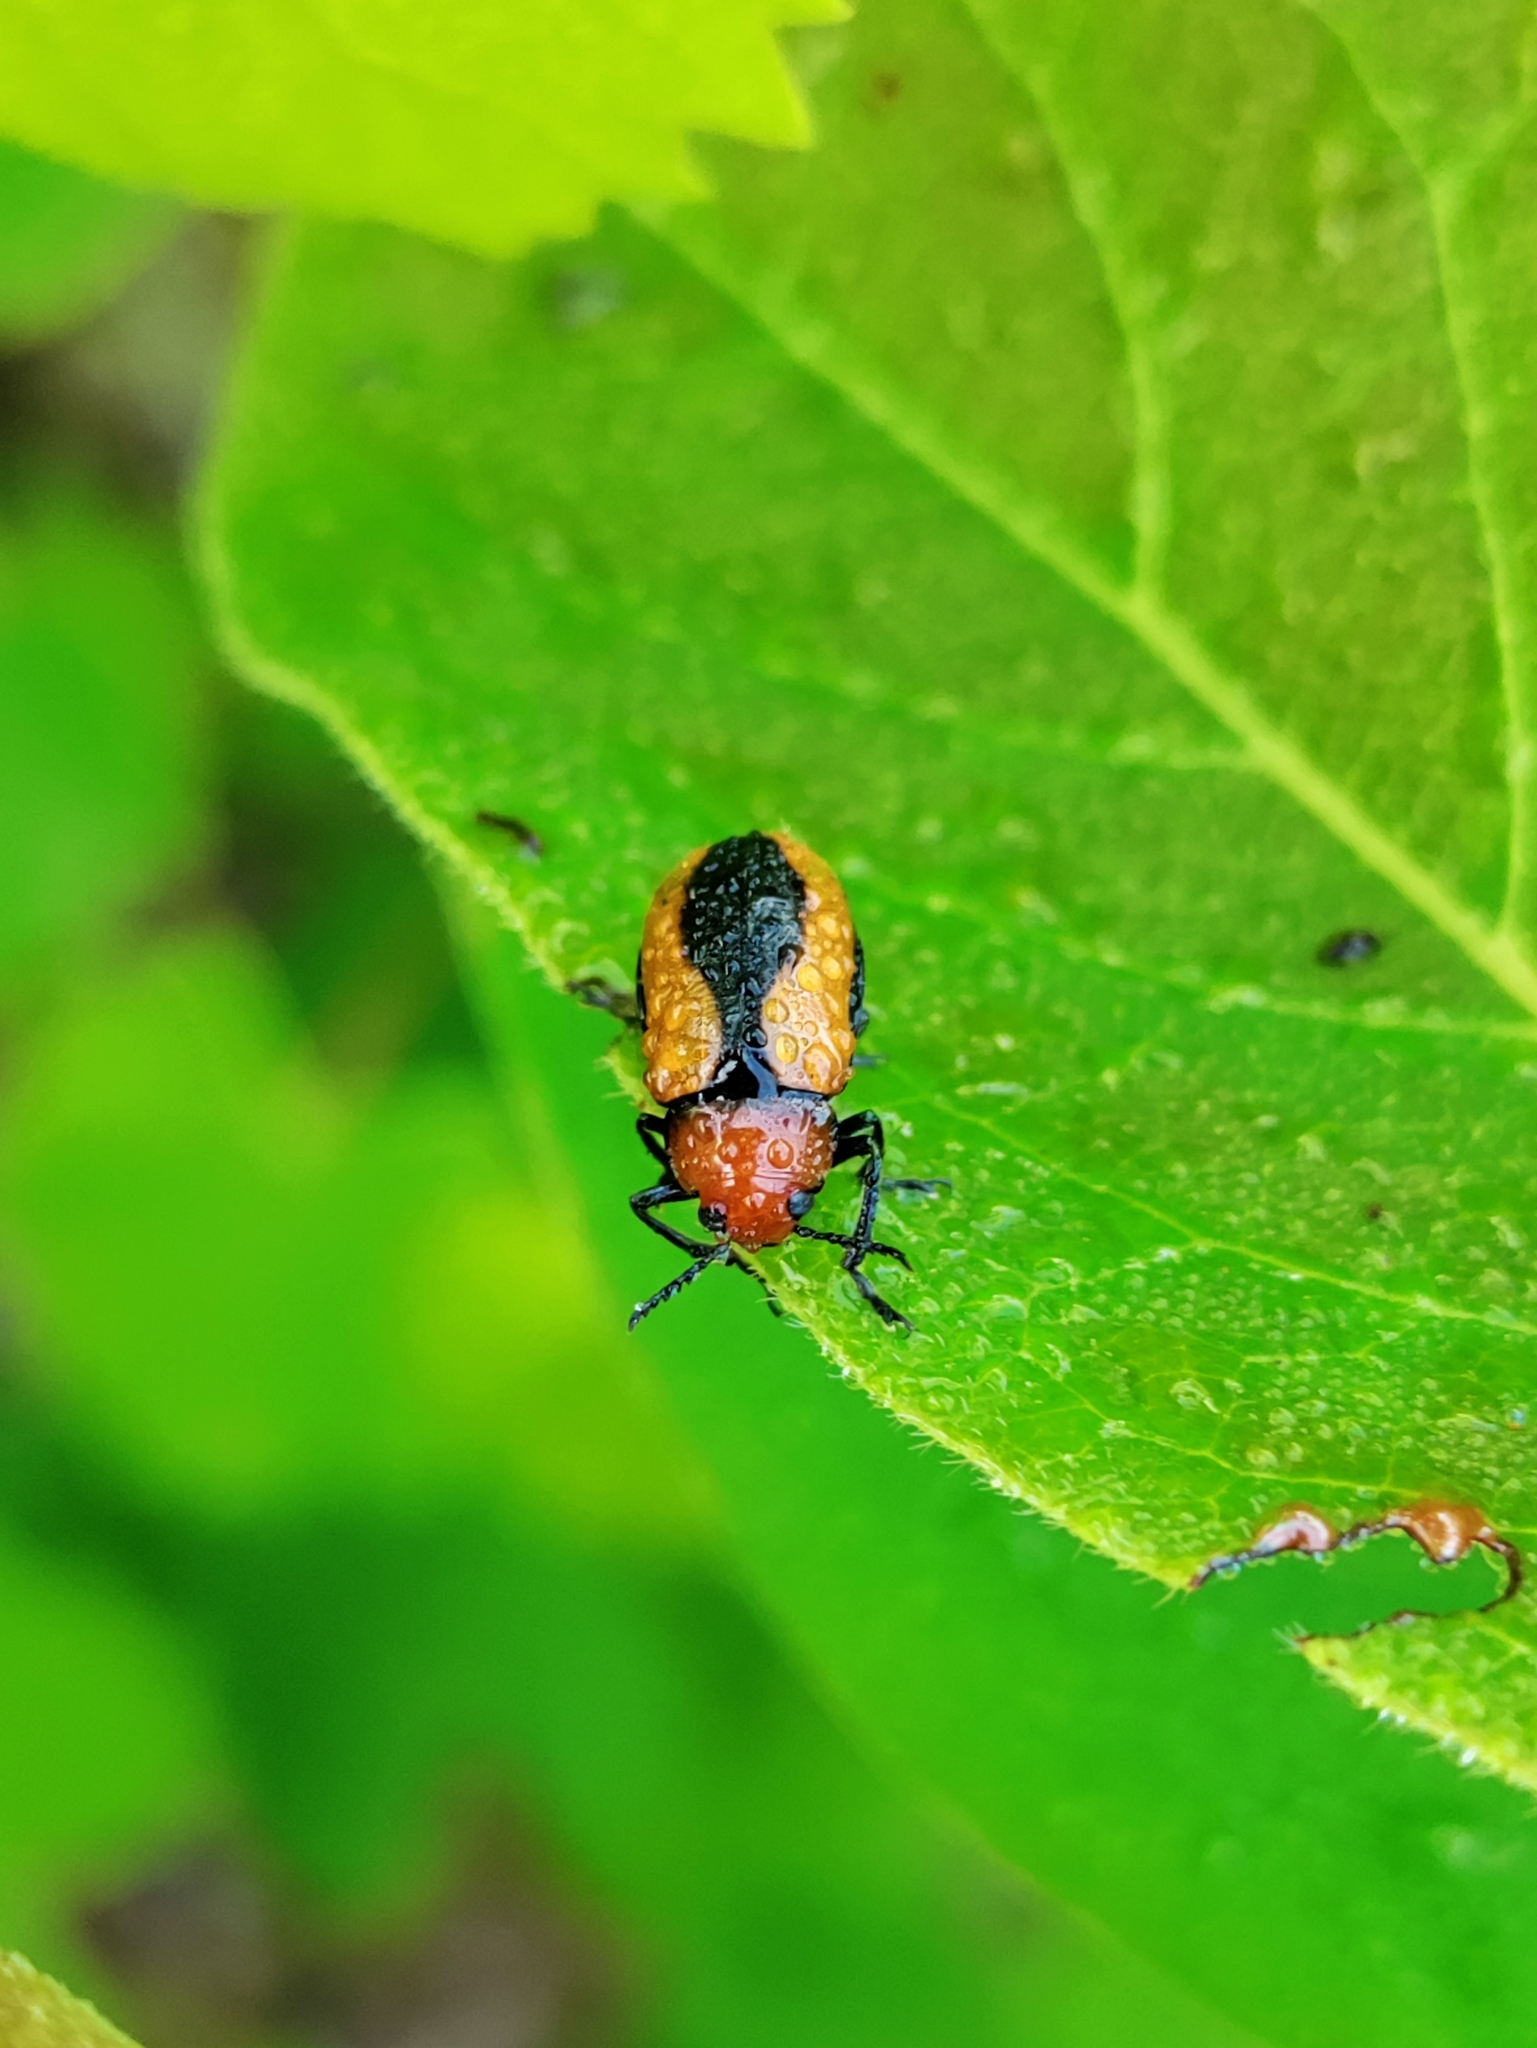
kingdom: Animalia
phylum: Arthropoda
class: Insecta
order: Coleoptera
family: Chrysomelidae
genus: Anomoea
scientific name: Anomoea laticlavia
